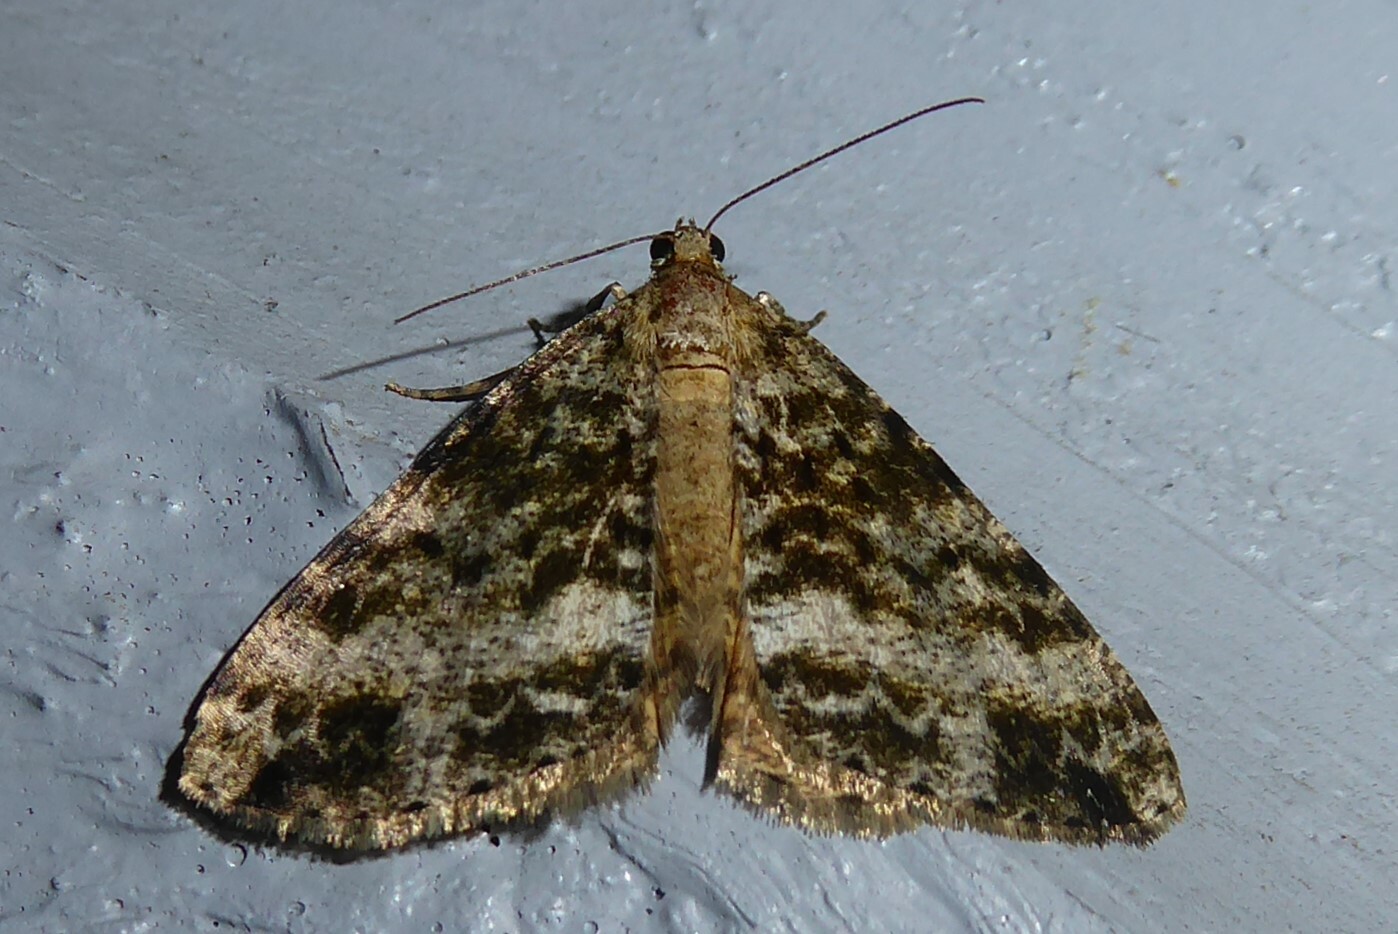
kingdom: Animalia
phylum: Arthropoda
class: Insecta
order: Lepidoptera
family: Geometridae
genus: Pseudocoremia
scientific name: Pseudocoremia lactiflua
